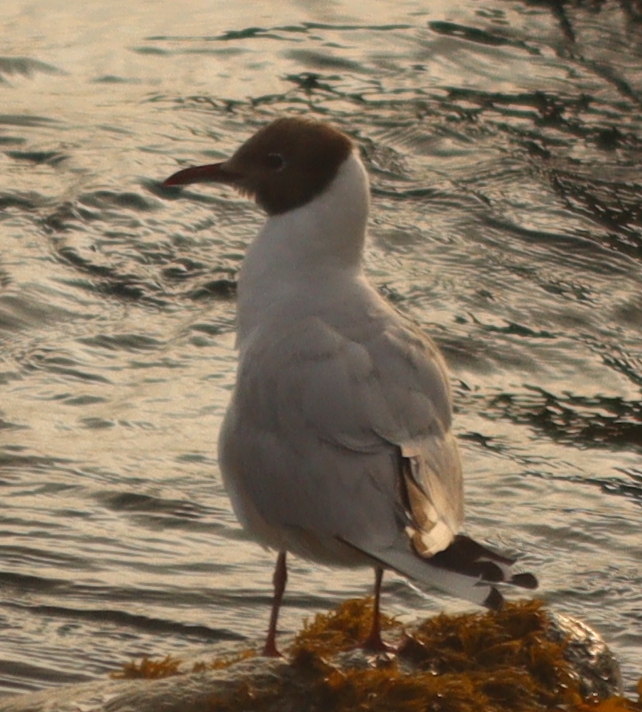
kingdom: Animalia
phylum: Chordata
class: Aves
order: Charadriiformes
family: Laridae
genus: Chroicocephalus
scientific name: Chroicocephalus ridibundus
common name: Black-headed gull
